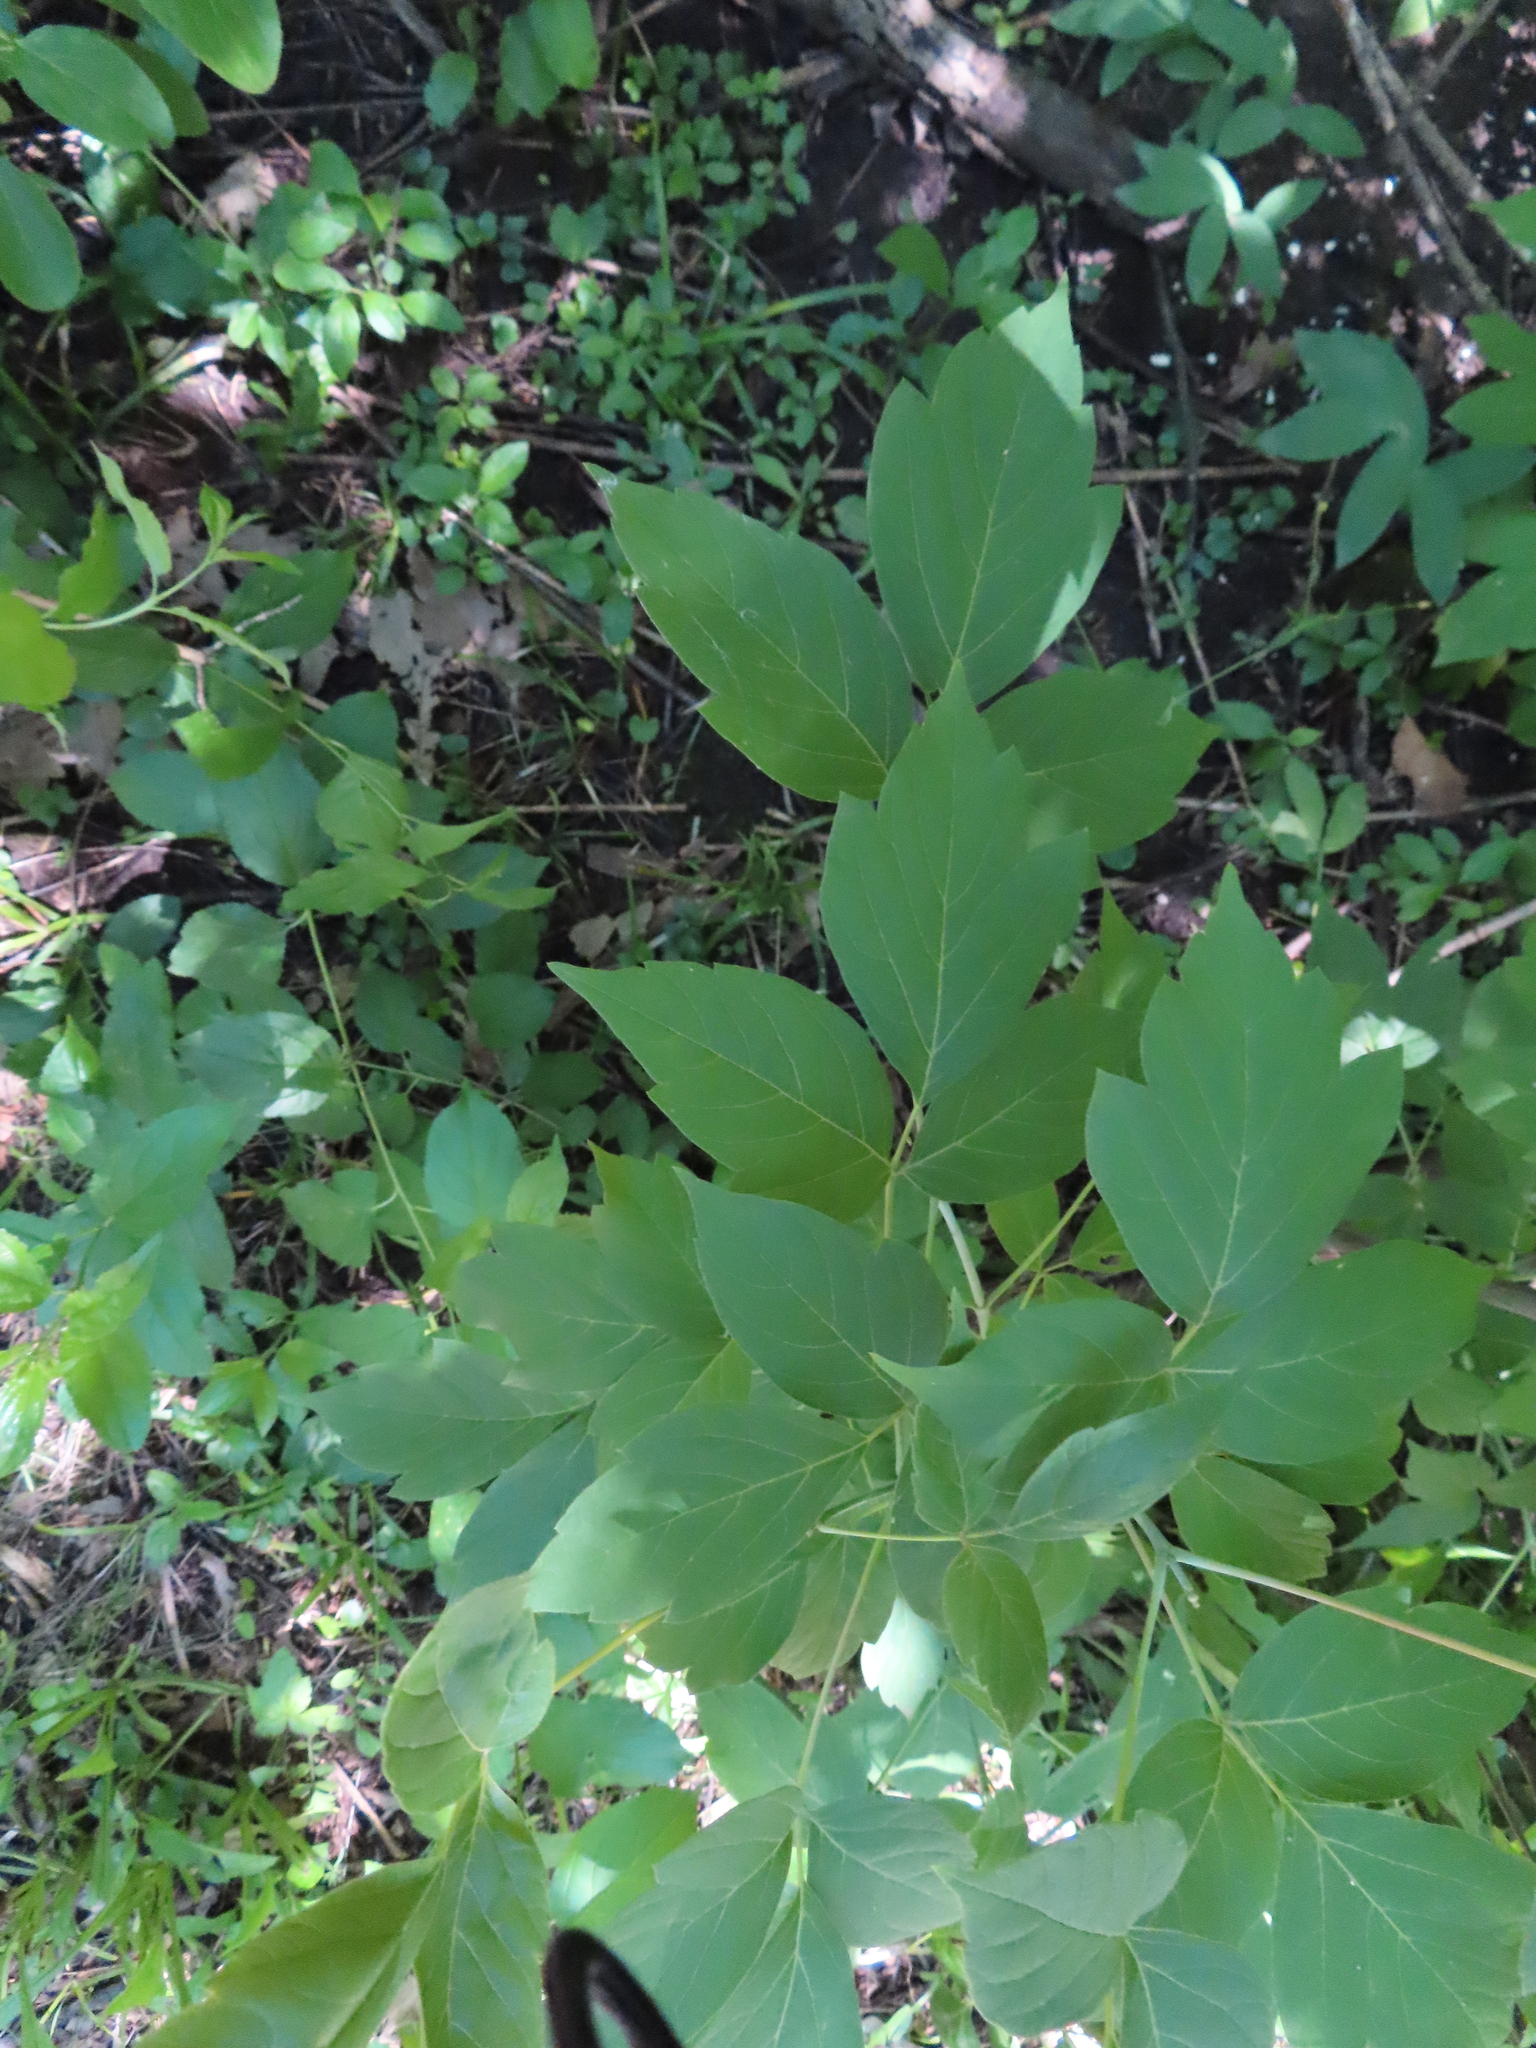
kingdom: Plantae
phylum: Tracheophyta
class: Magnoliopsida
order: Sapindales
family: Sapindaceae
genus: Acer
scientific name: Acer negundo
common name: Ashleaf maple
